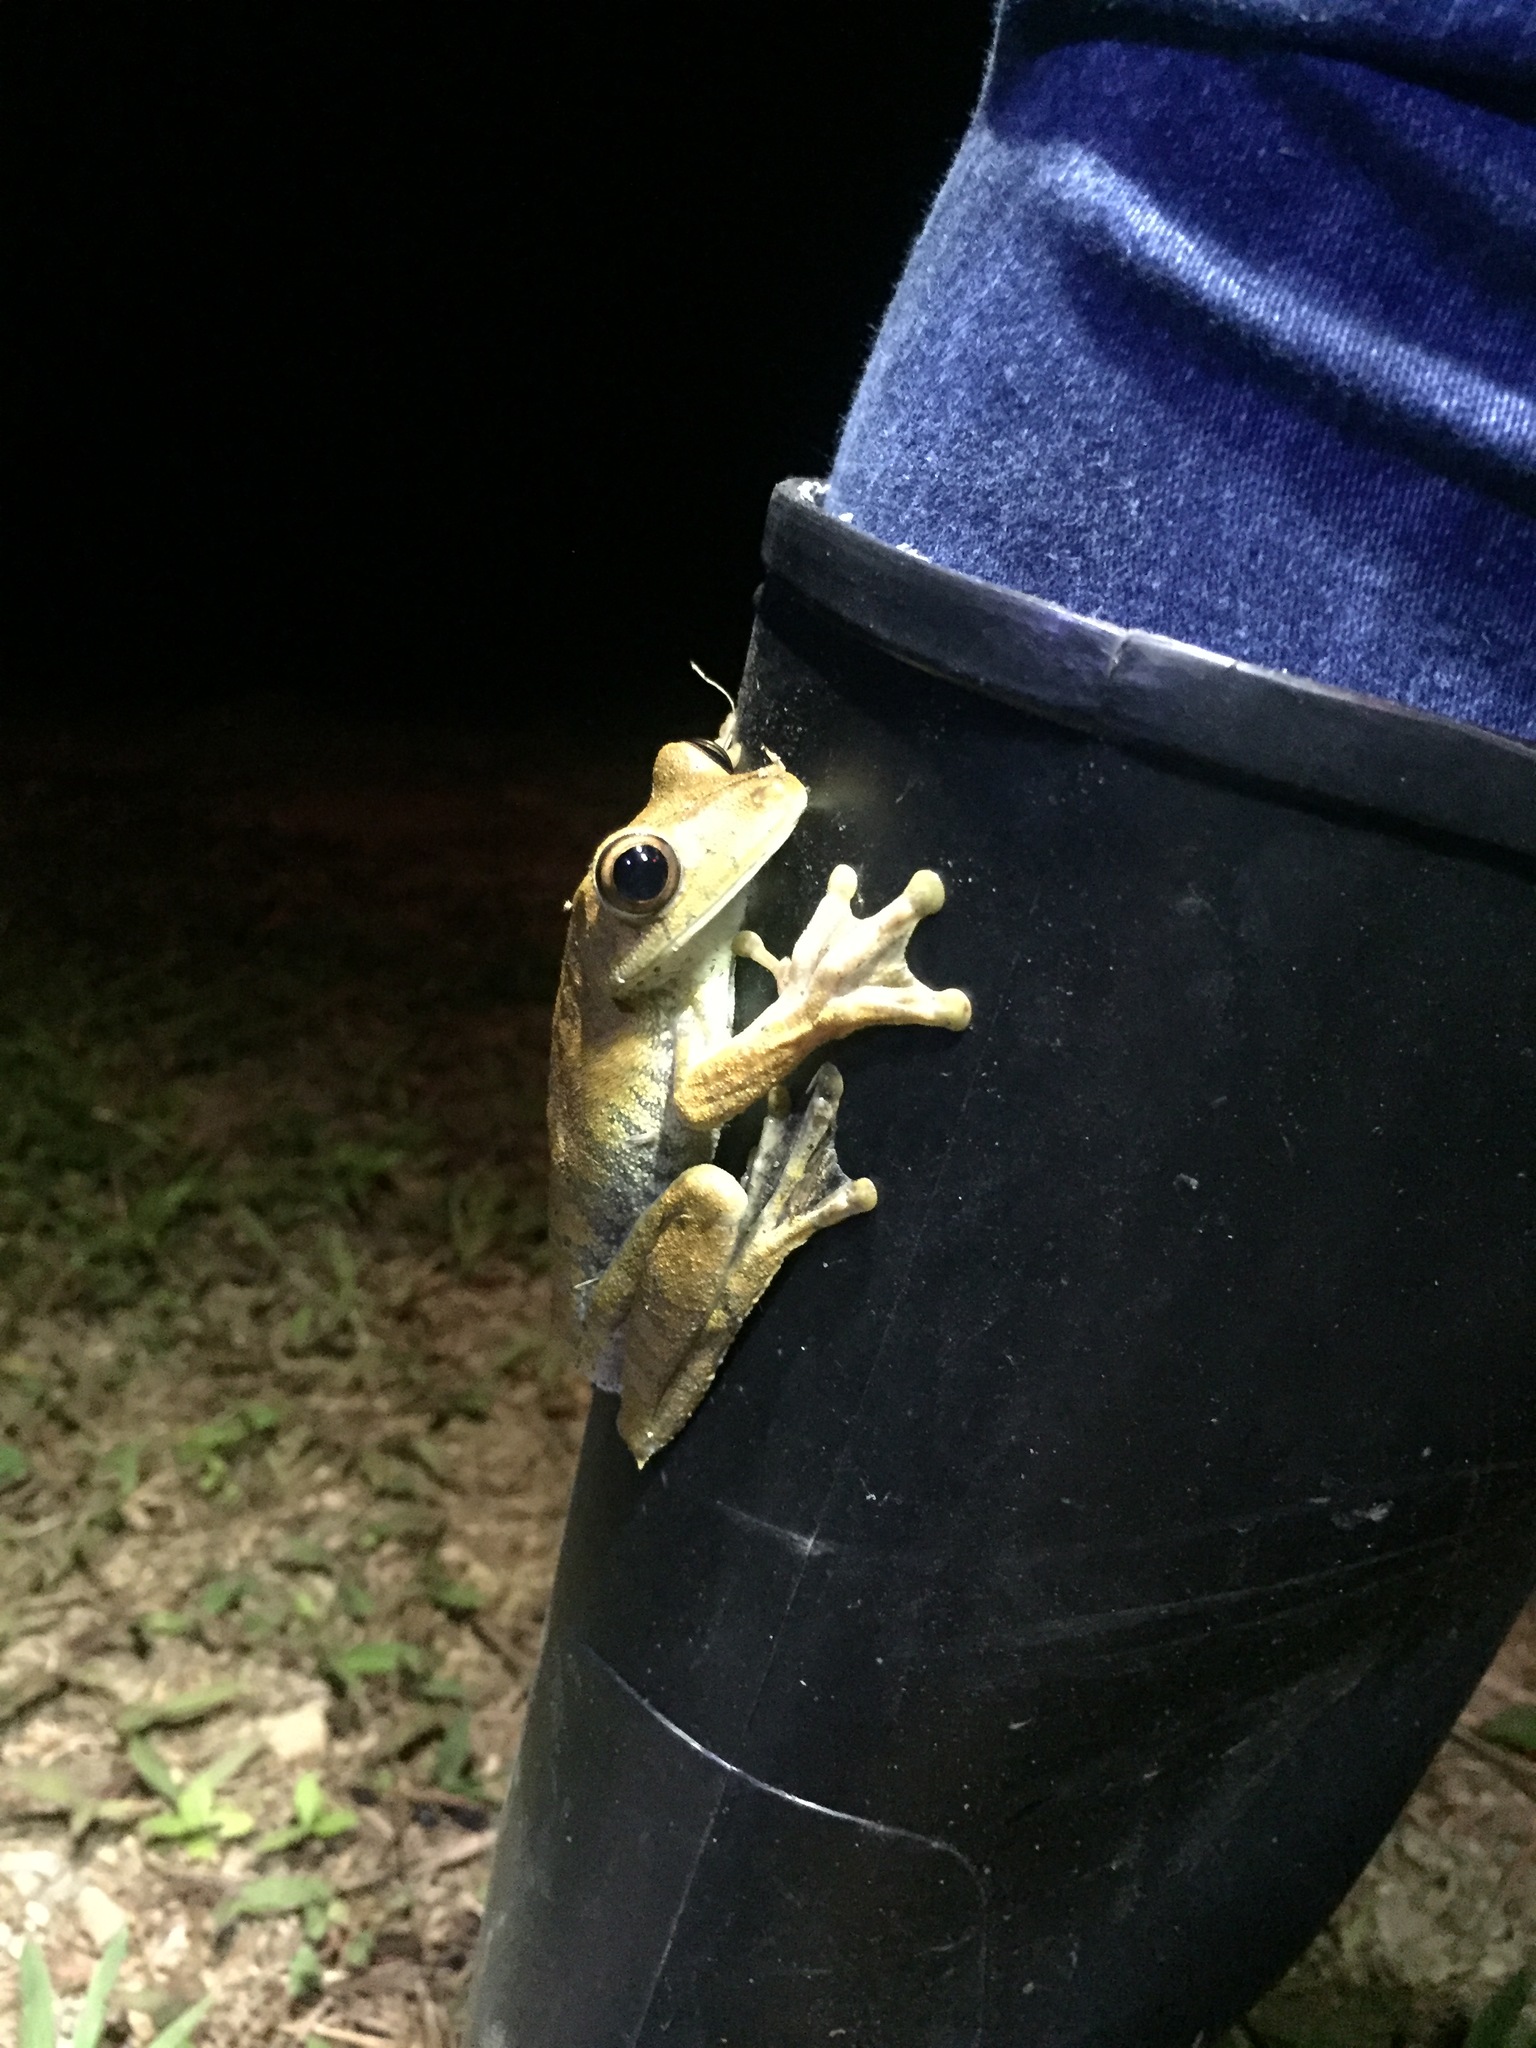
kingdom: Animalia
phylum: Chordata
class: Amphibia
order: Anura
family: Hylidae
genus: Boana
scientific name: Boana boans
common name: Giant gladiator treefrog
